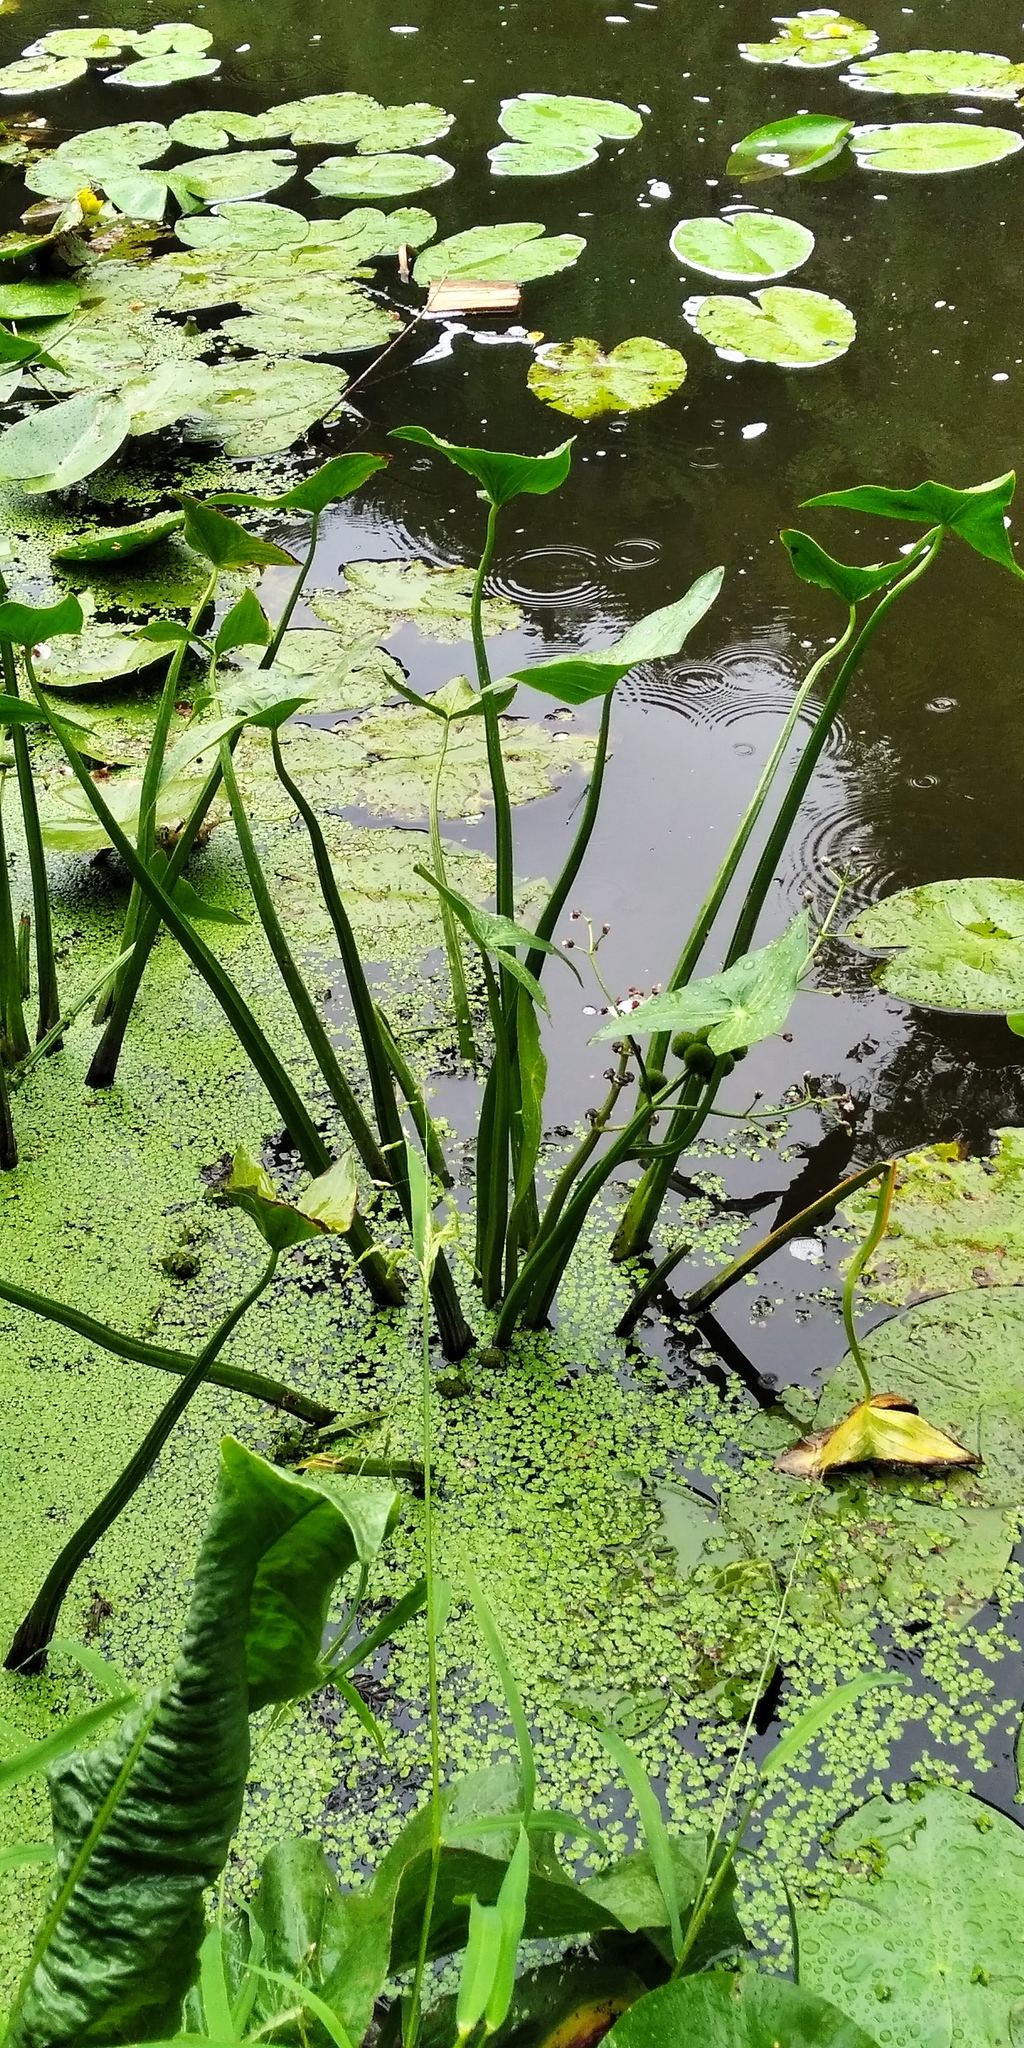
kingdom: Plantae
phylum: Tracheophyta
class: Liliopsida
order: Alismatales
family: Alismataceae
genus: Sagittaria
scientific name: Sagittaria sagittifolia
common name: Arrowhead
